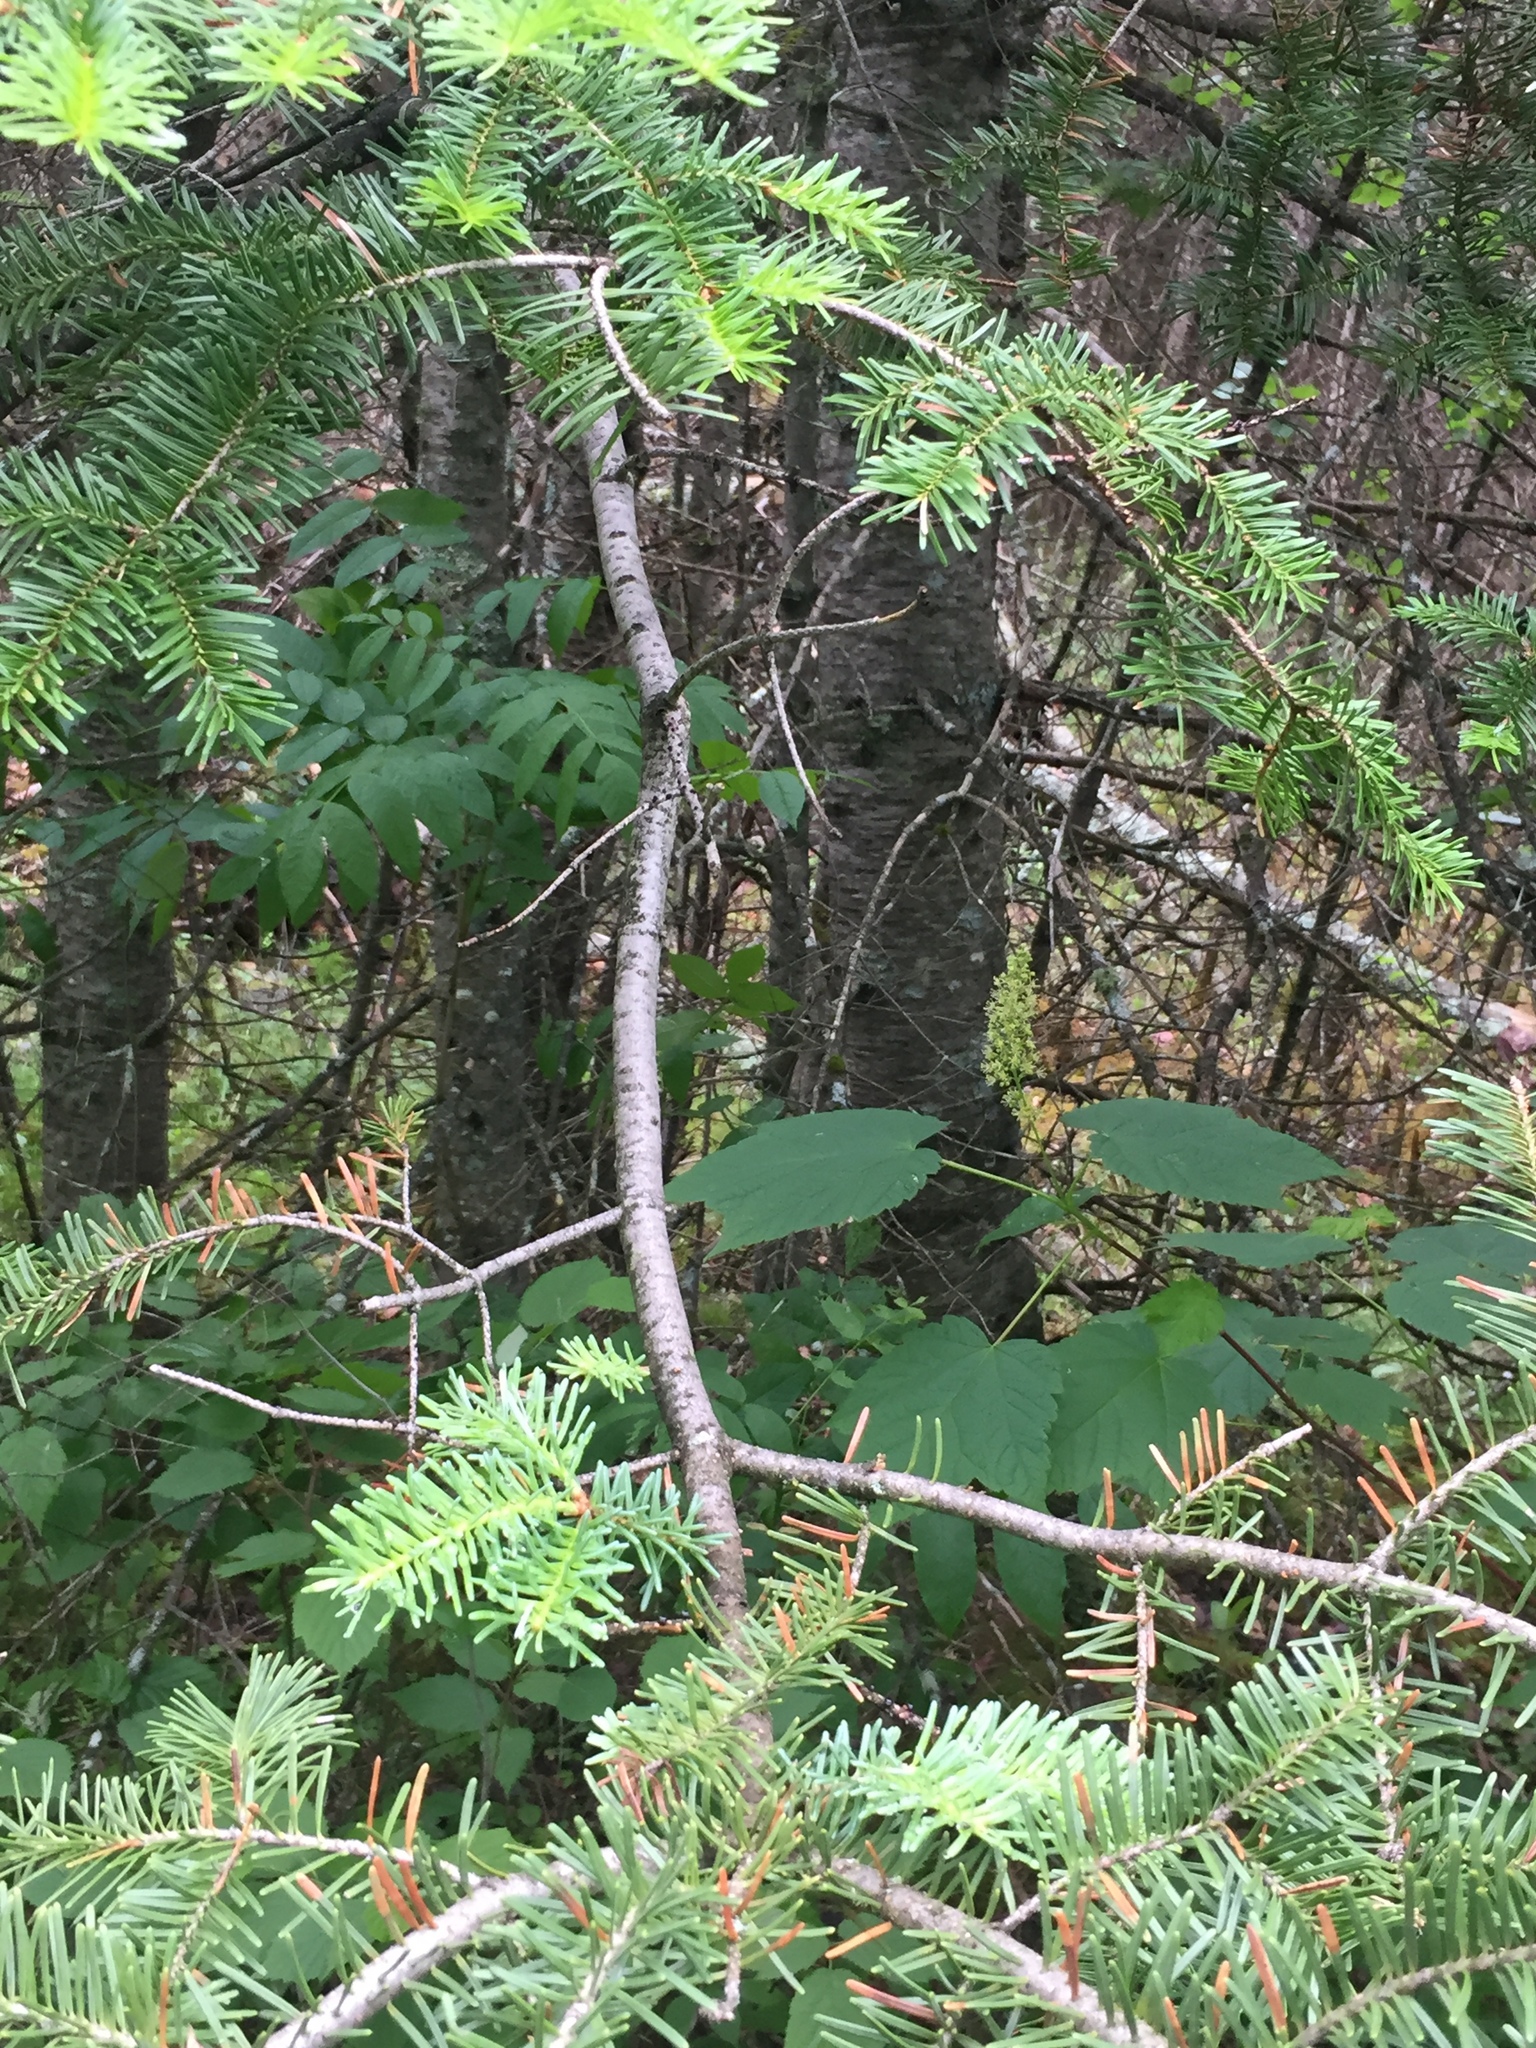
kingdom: Plantae
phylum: Tracheophyta
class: Pinopsida
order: Pinales
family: Pinaceae
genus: Abies
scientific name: Abies balsamea
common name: Balsam fir
